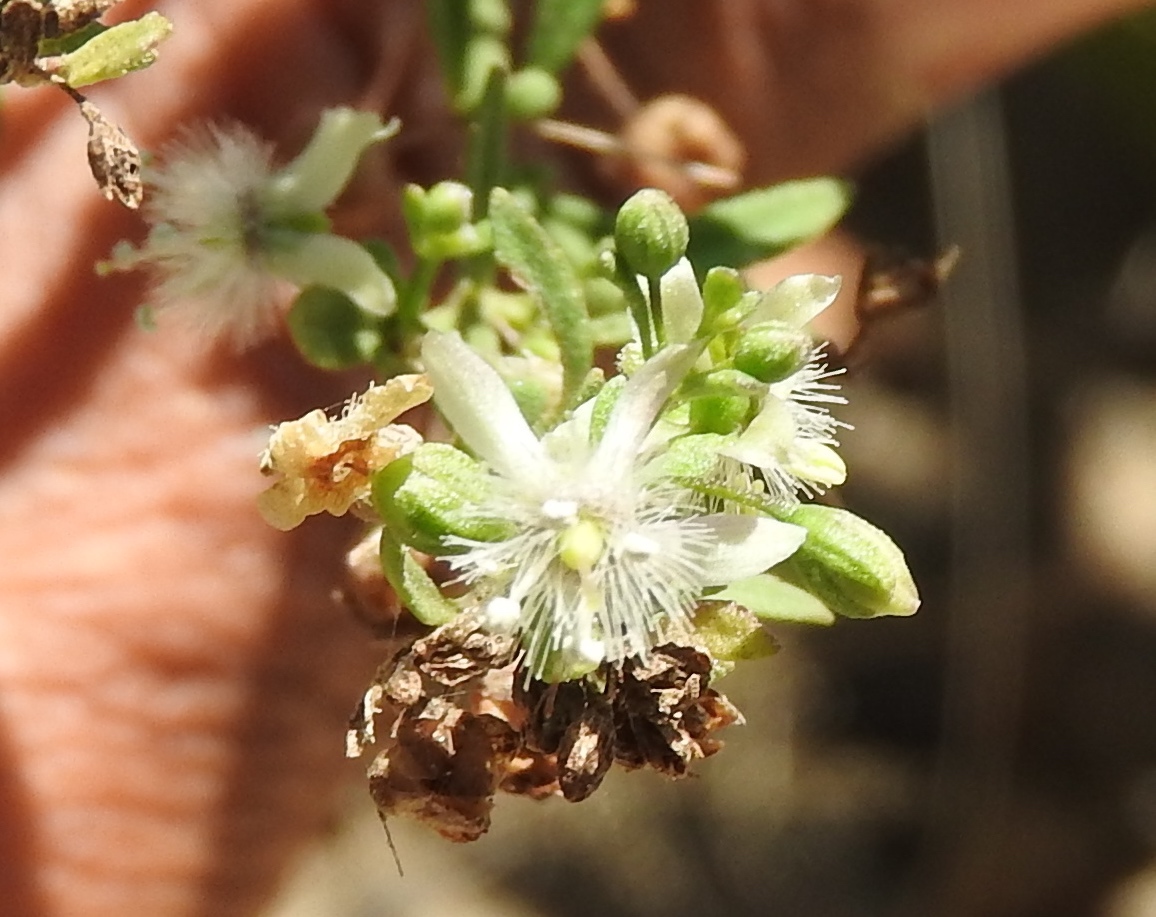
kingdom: Plantae
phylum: Tracheophyta
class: Magnoliopsida
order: Lamiales
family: Plantaginaceae
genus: Scoparia
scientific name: Scoparia dulcis
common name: Scoparia-weed
